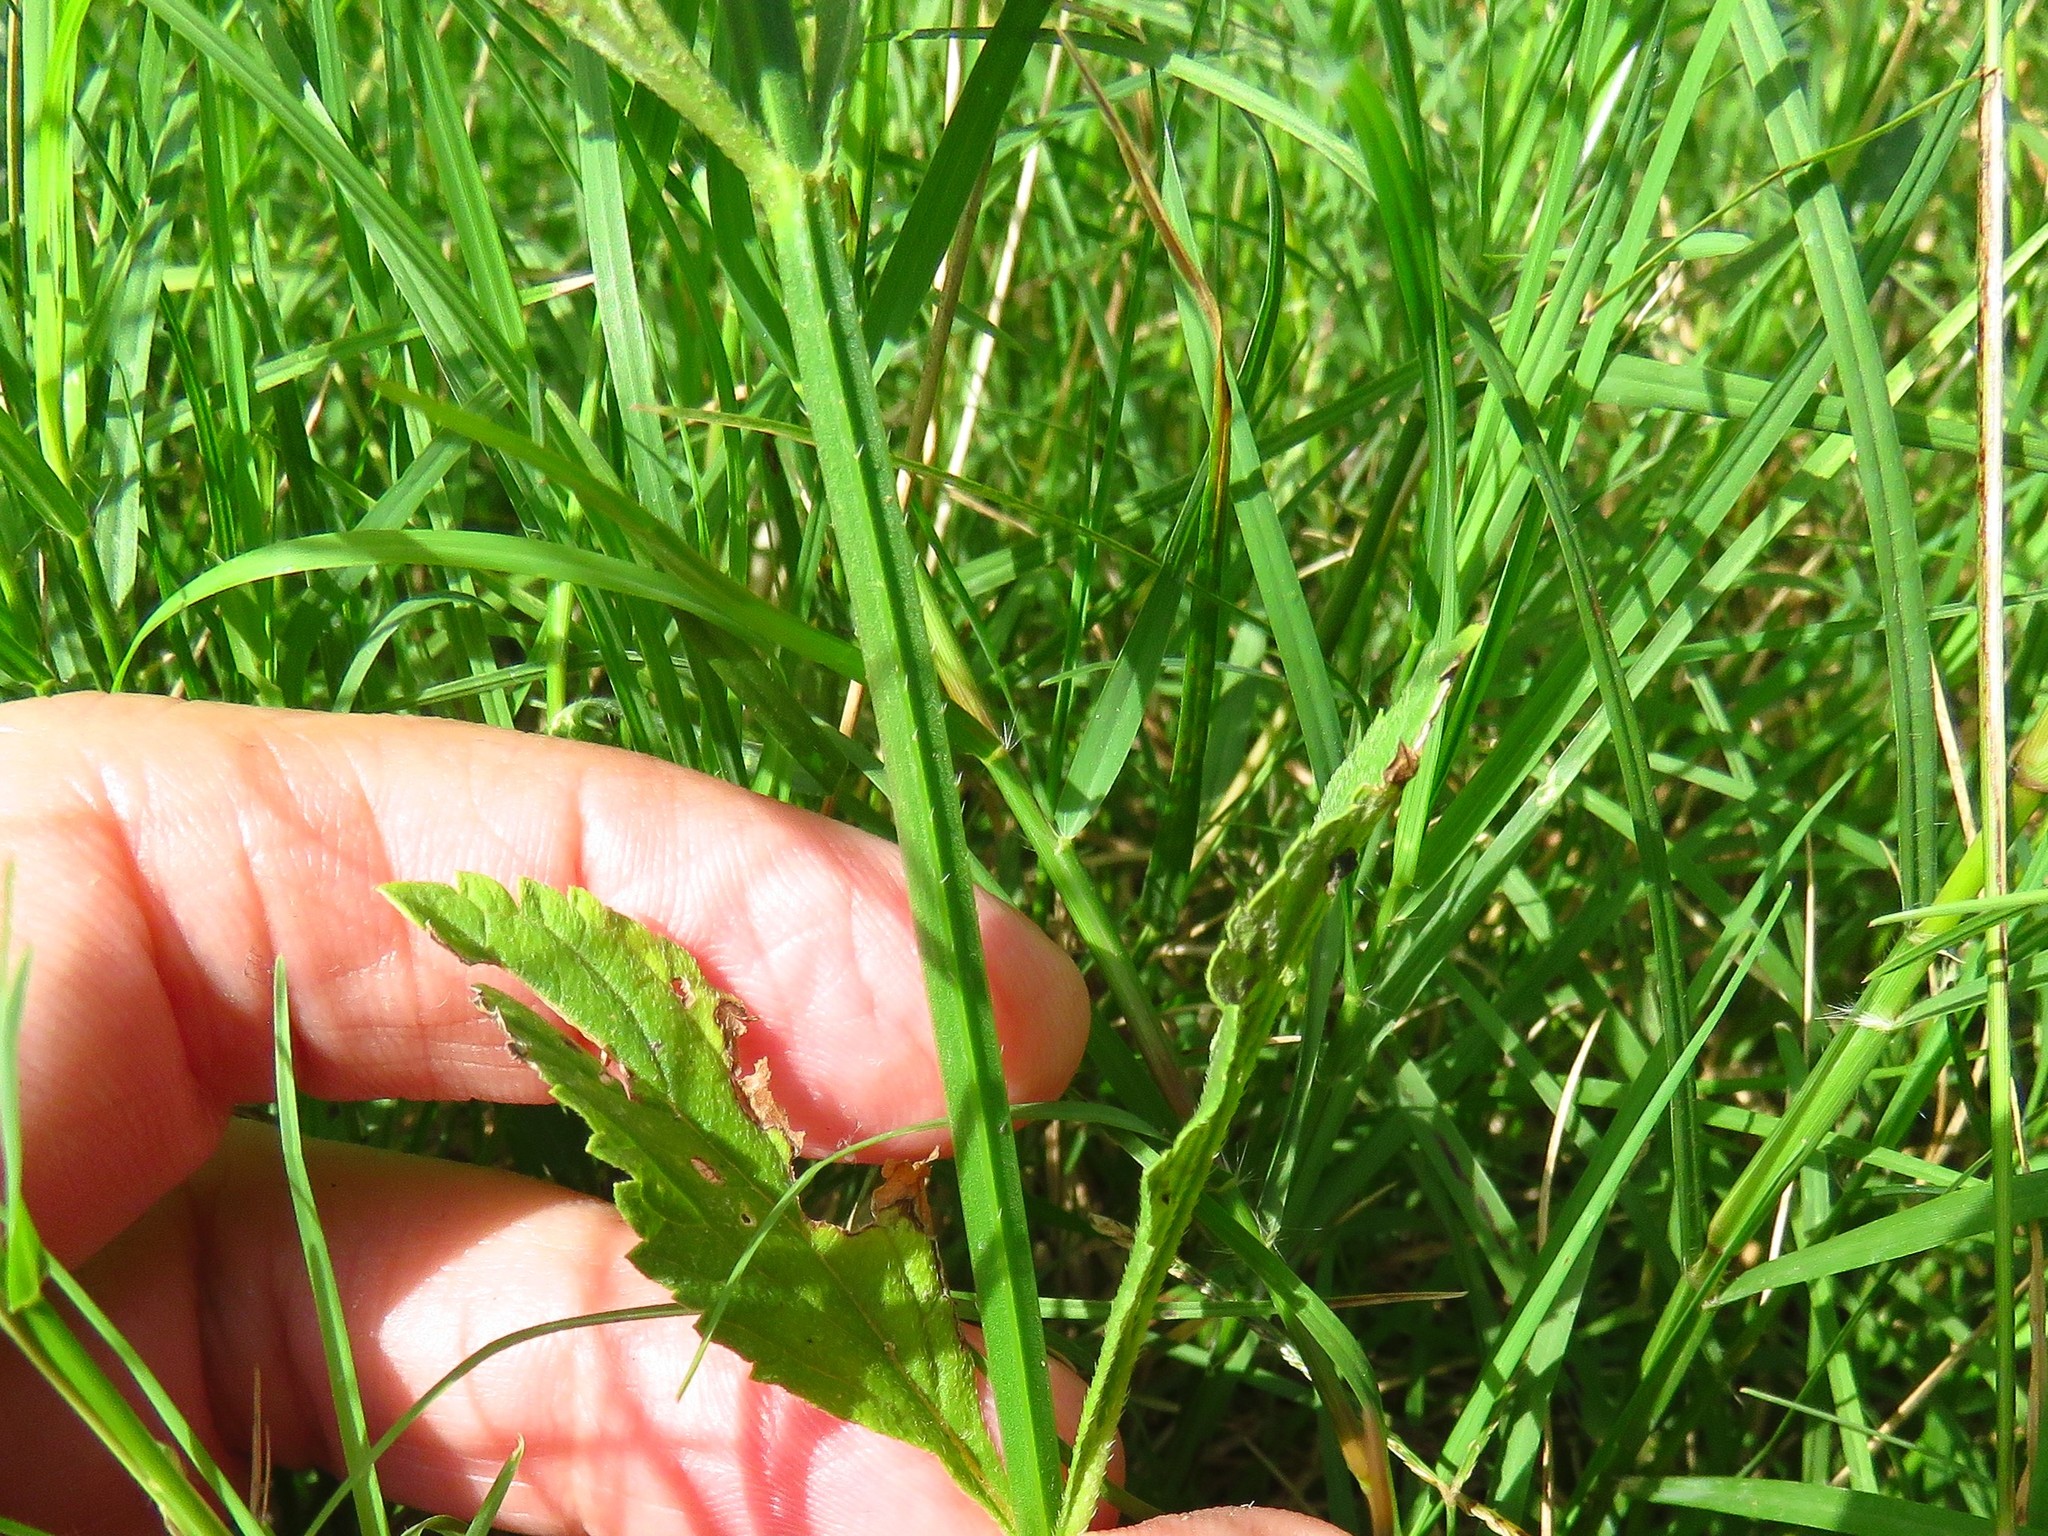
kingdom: Plantae
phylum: Tracheophyta
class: Magnoliopsida
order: Lamiales
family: Verbenaceae
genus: Verbena
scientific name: Verbena brasiliensis
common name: Brazilian vervain
